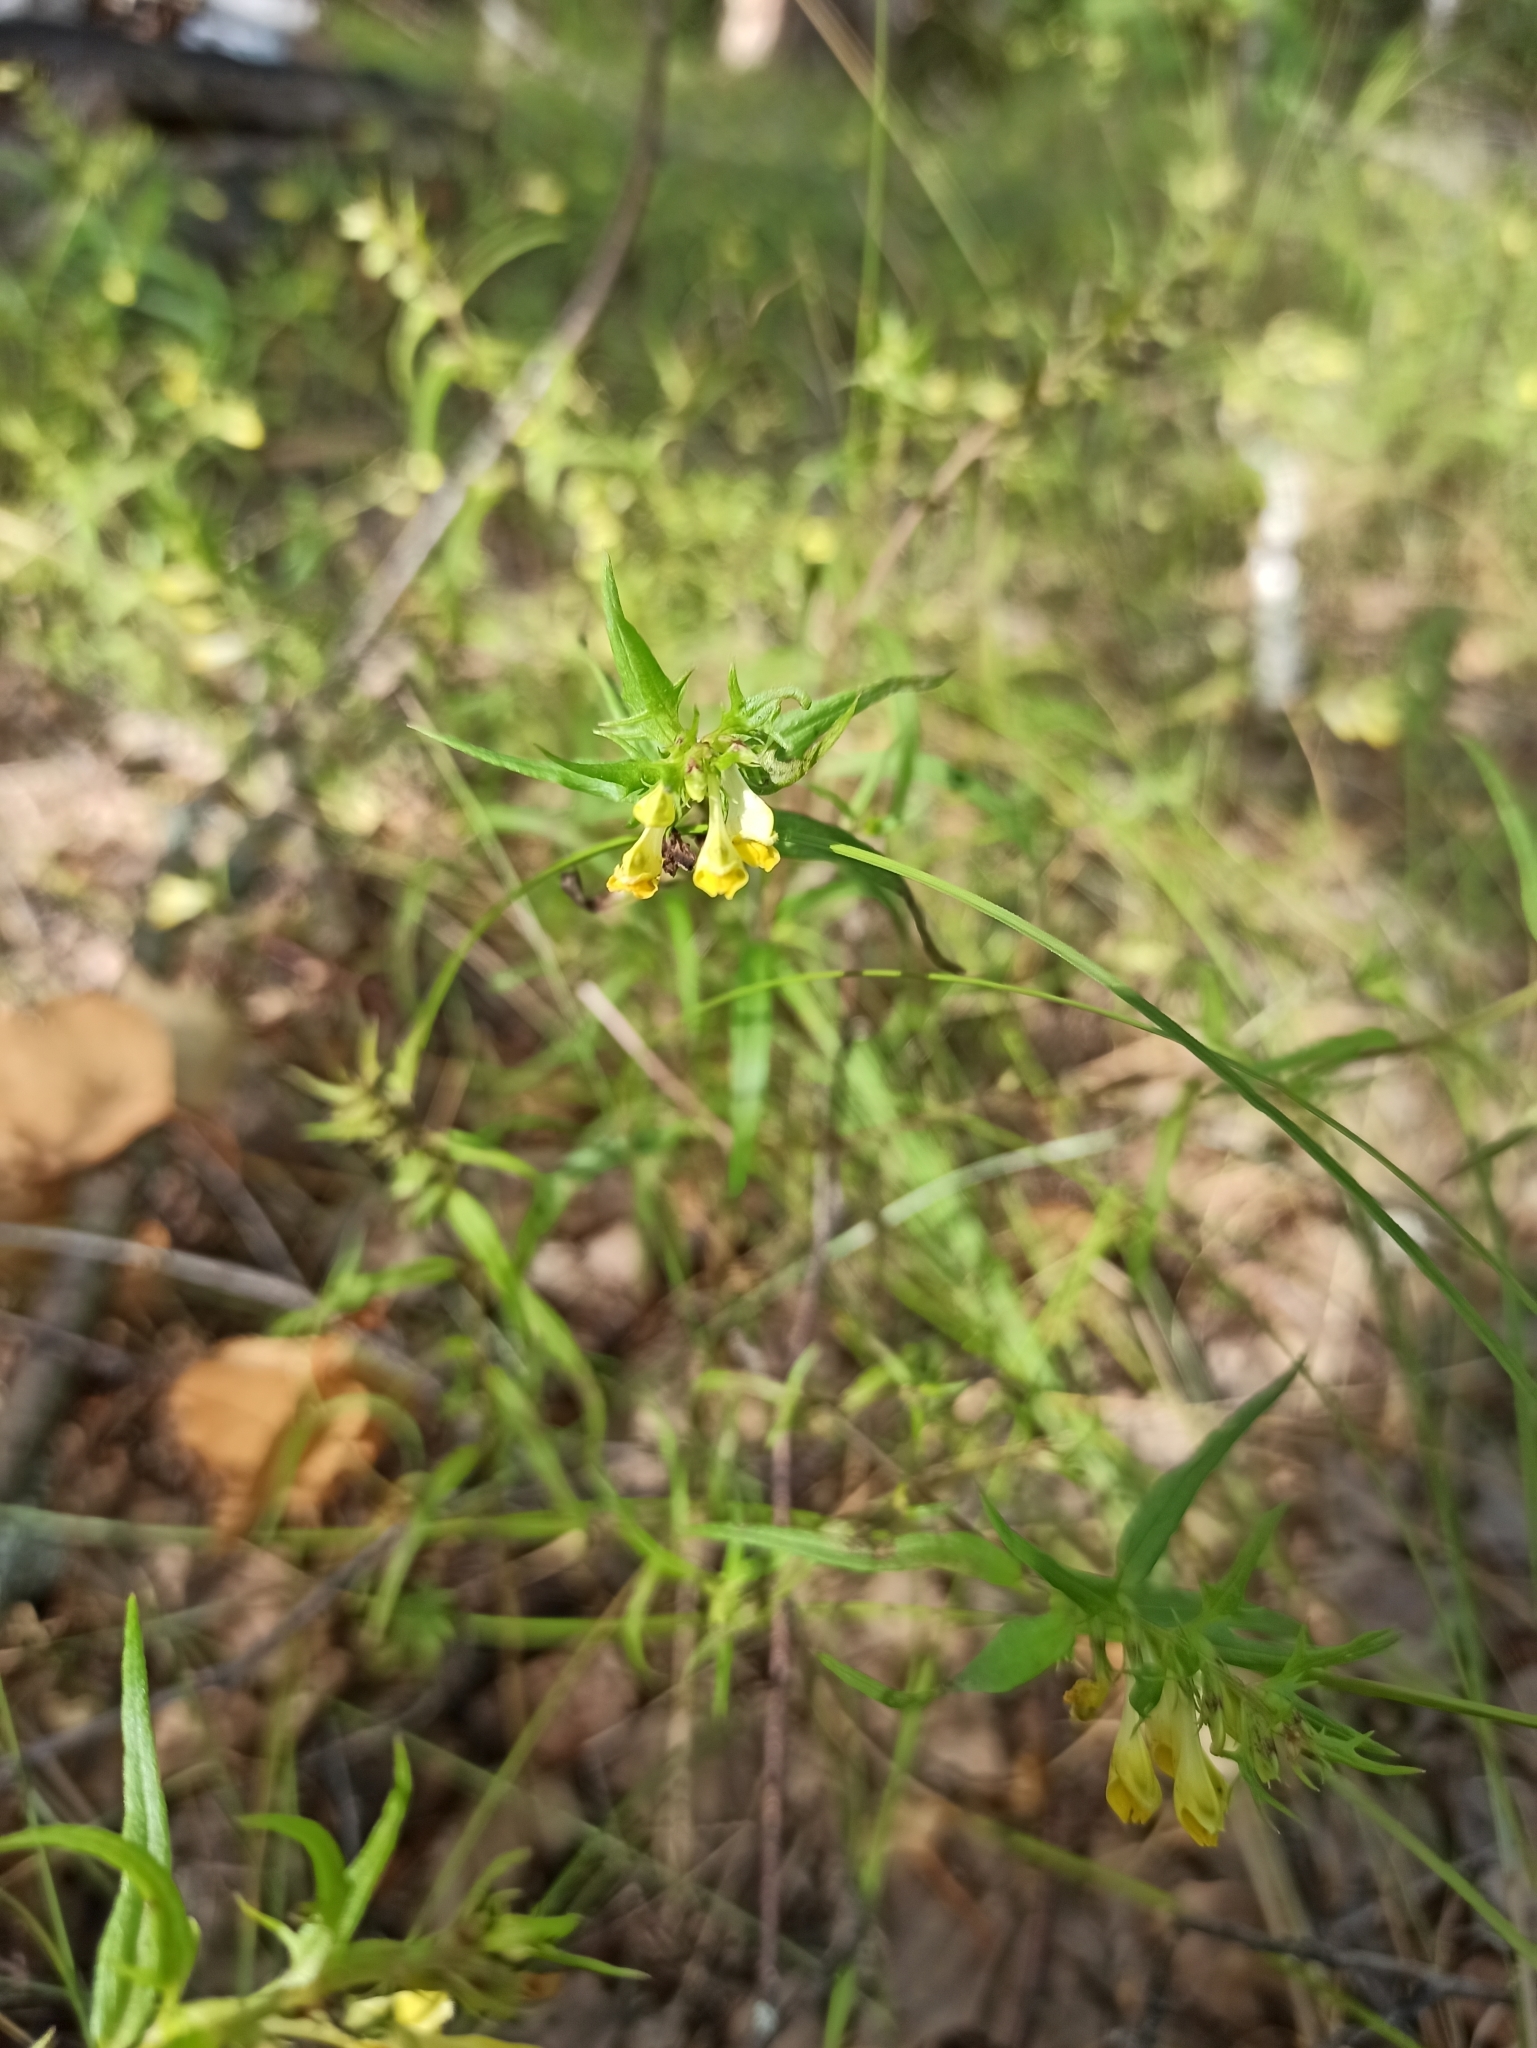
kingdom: Plantae
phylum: Tracheophyta
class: Magnoliopsida
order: Lamiales
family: Orobanchaceae
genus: Melampyrum
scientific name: Melampyrum pratense
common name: Common cow-wheat
